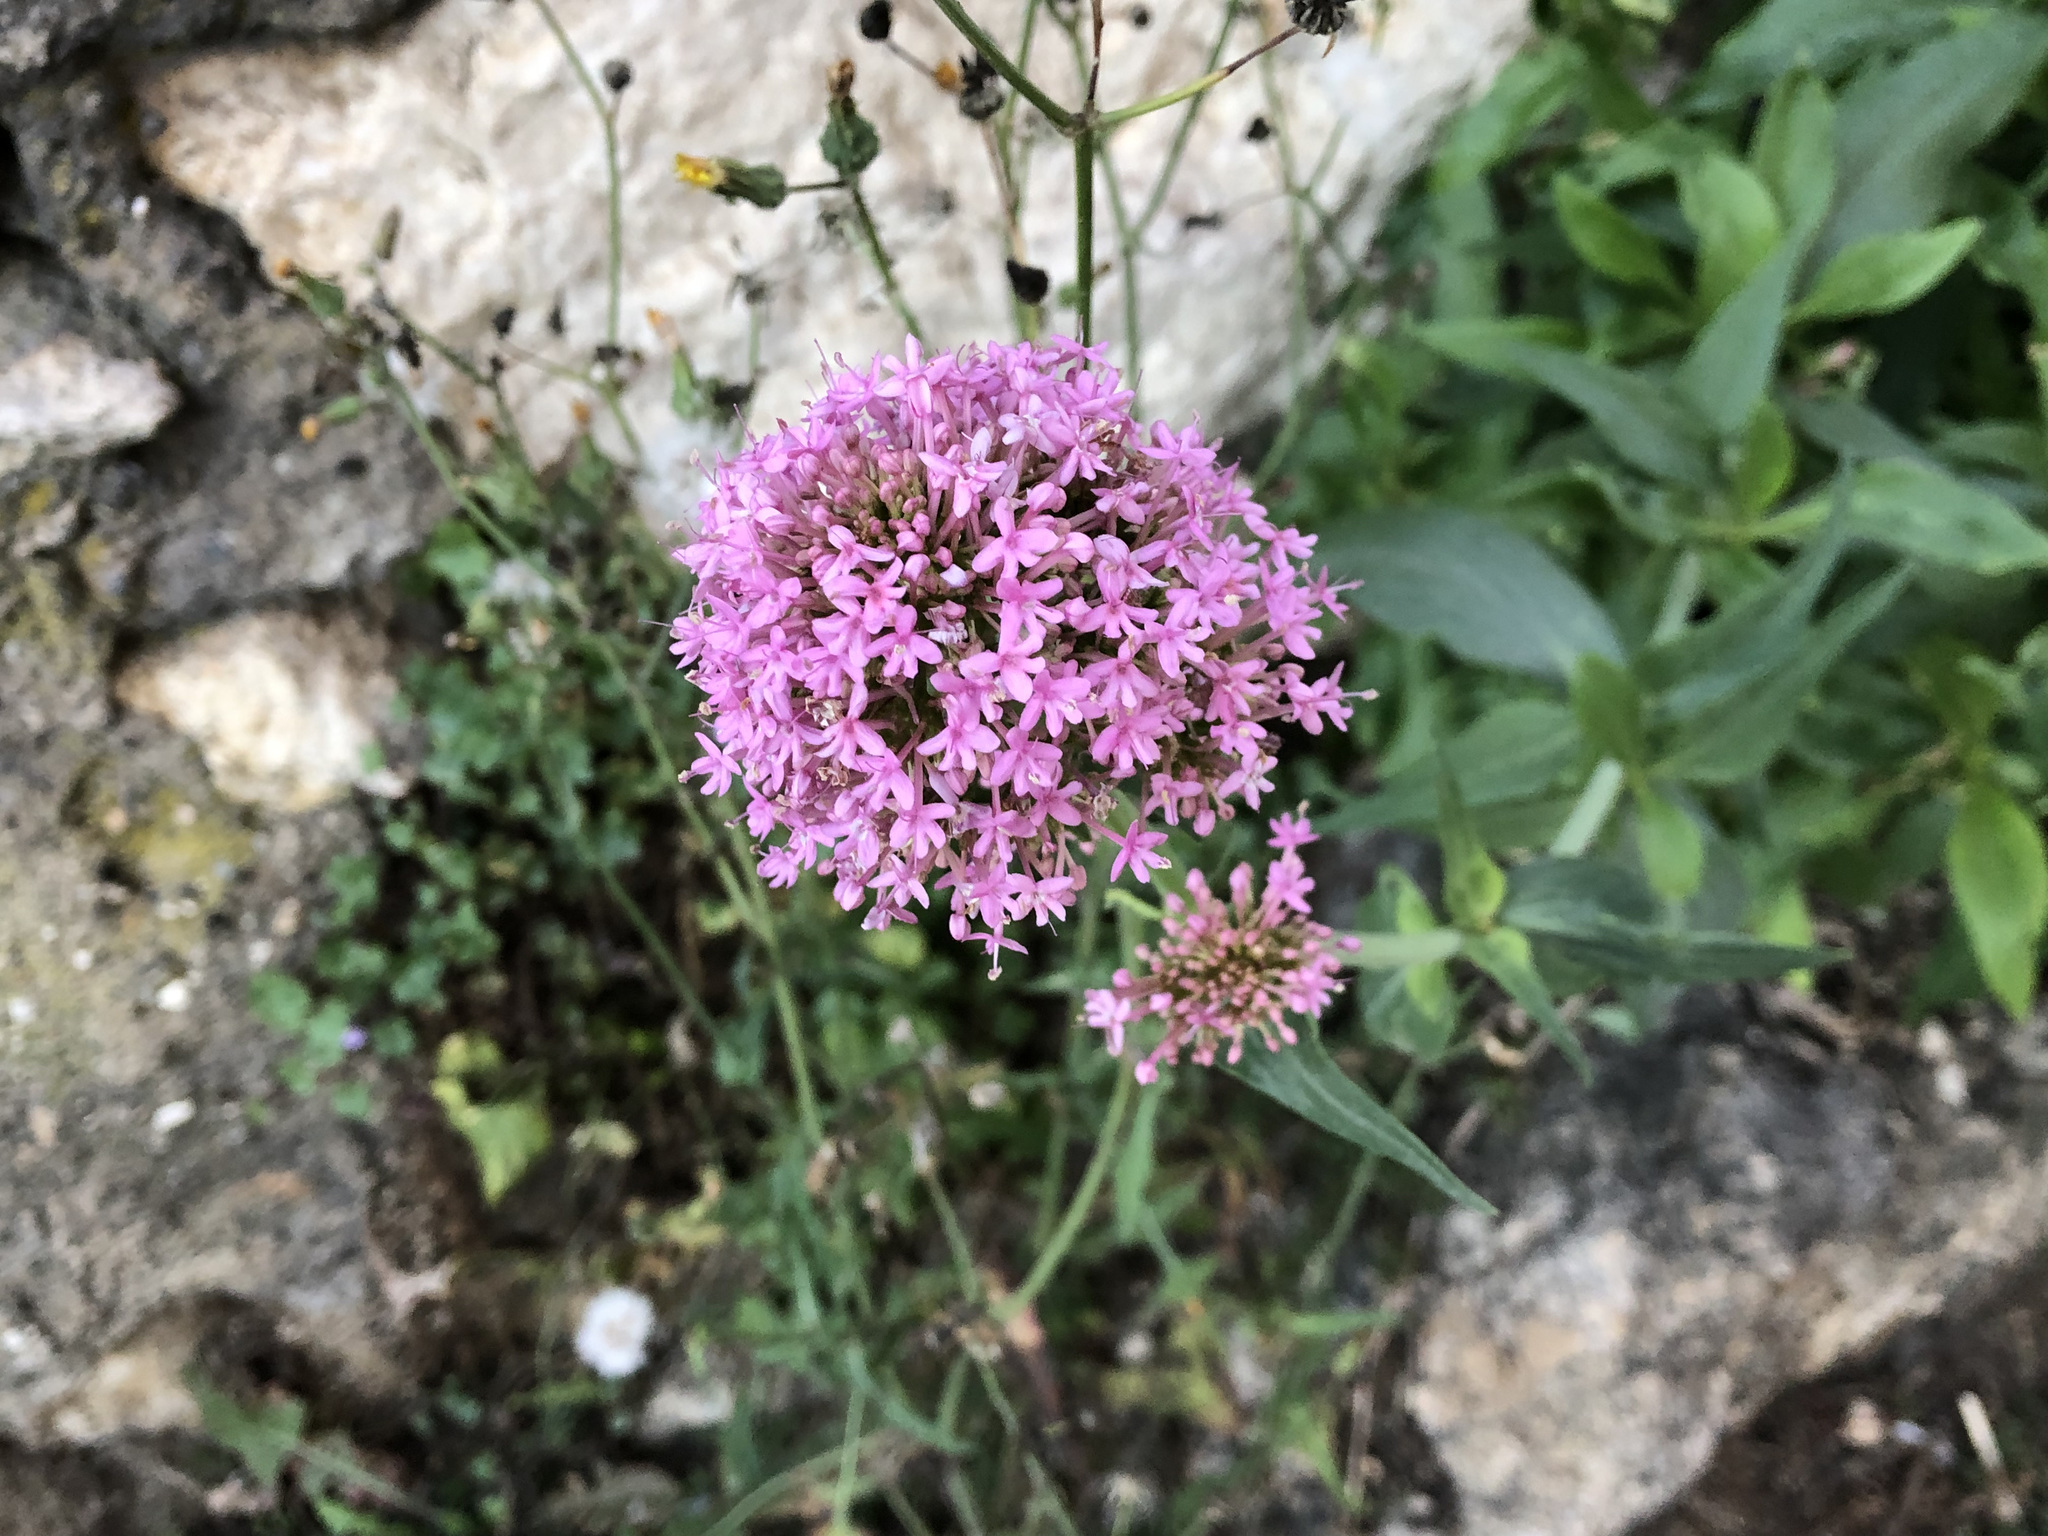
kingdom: Plantae
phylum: Tracheophyta
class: Magnoliopsida
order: Dipsacales
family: Caprifoliaceae
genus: Centranthus
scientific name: Centranthus ruber
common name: Red valerian
